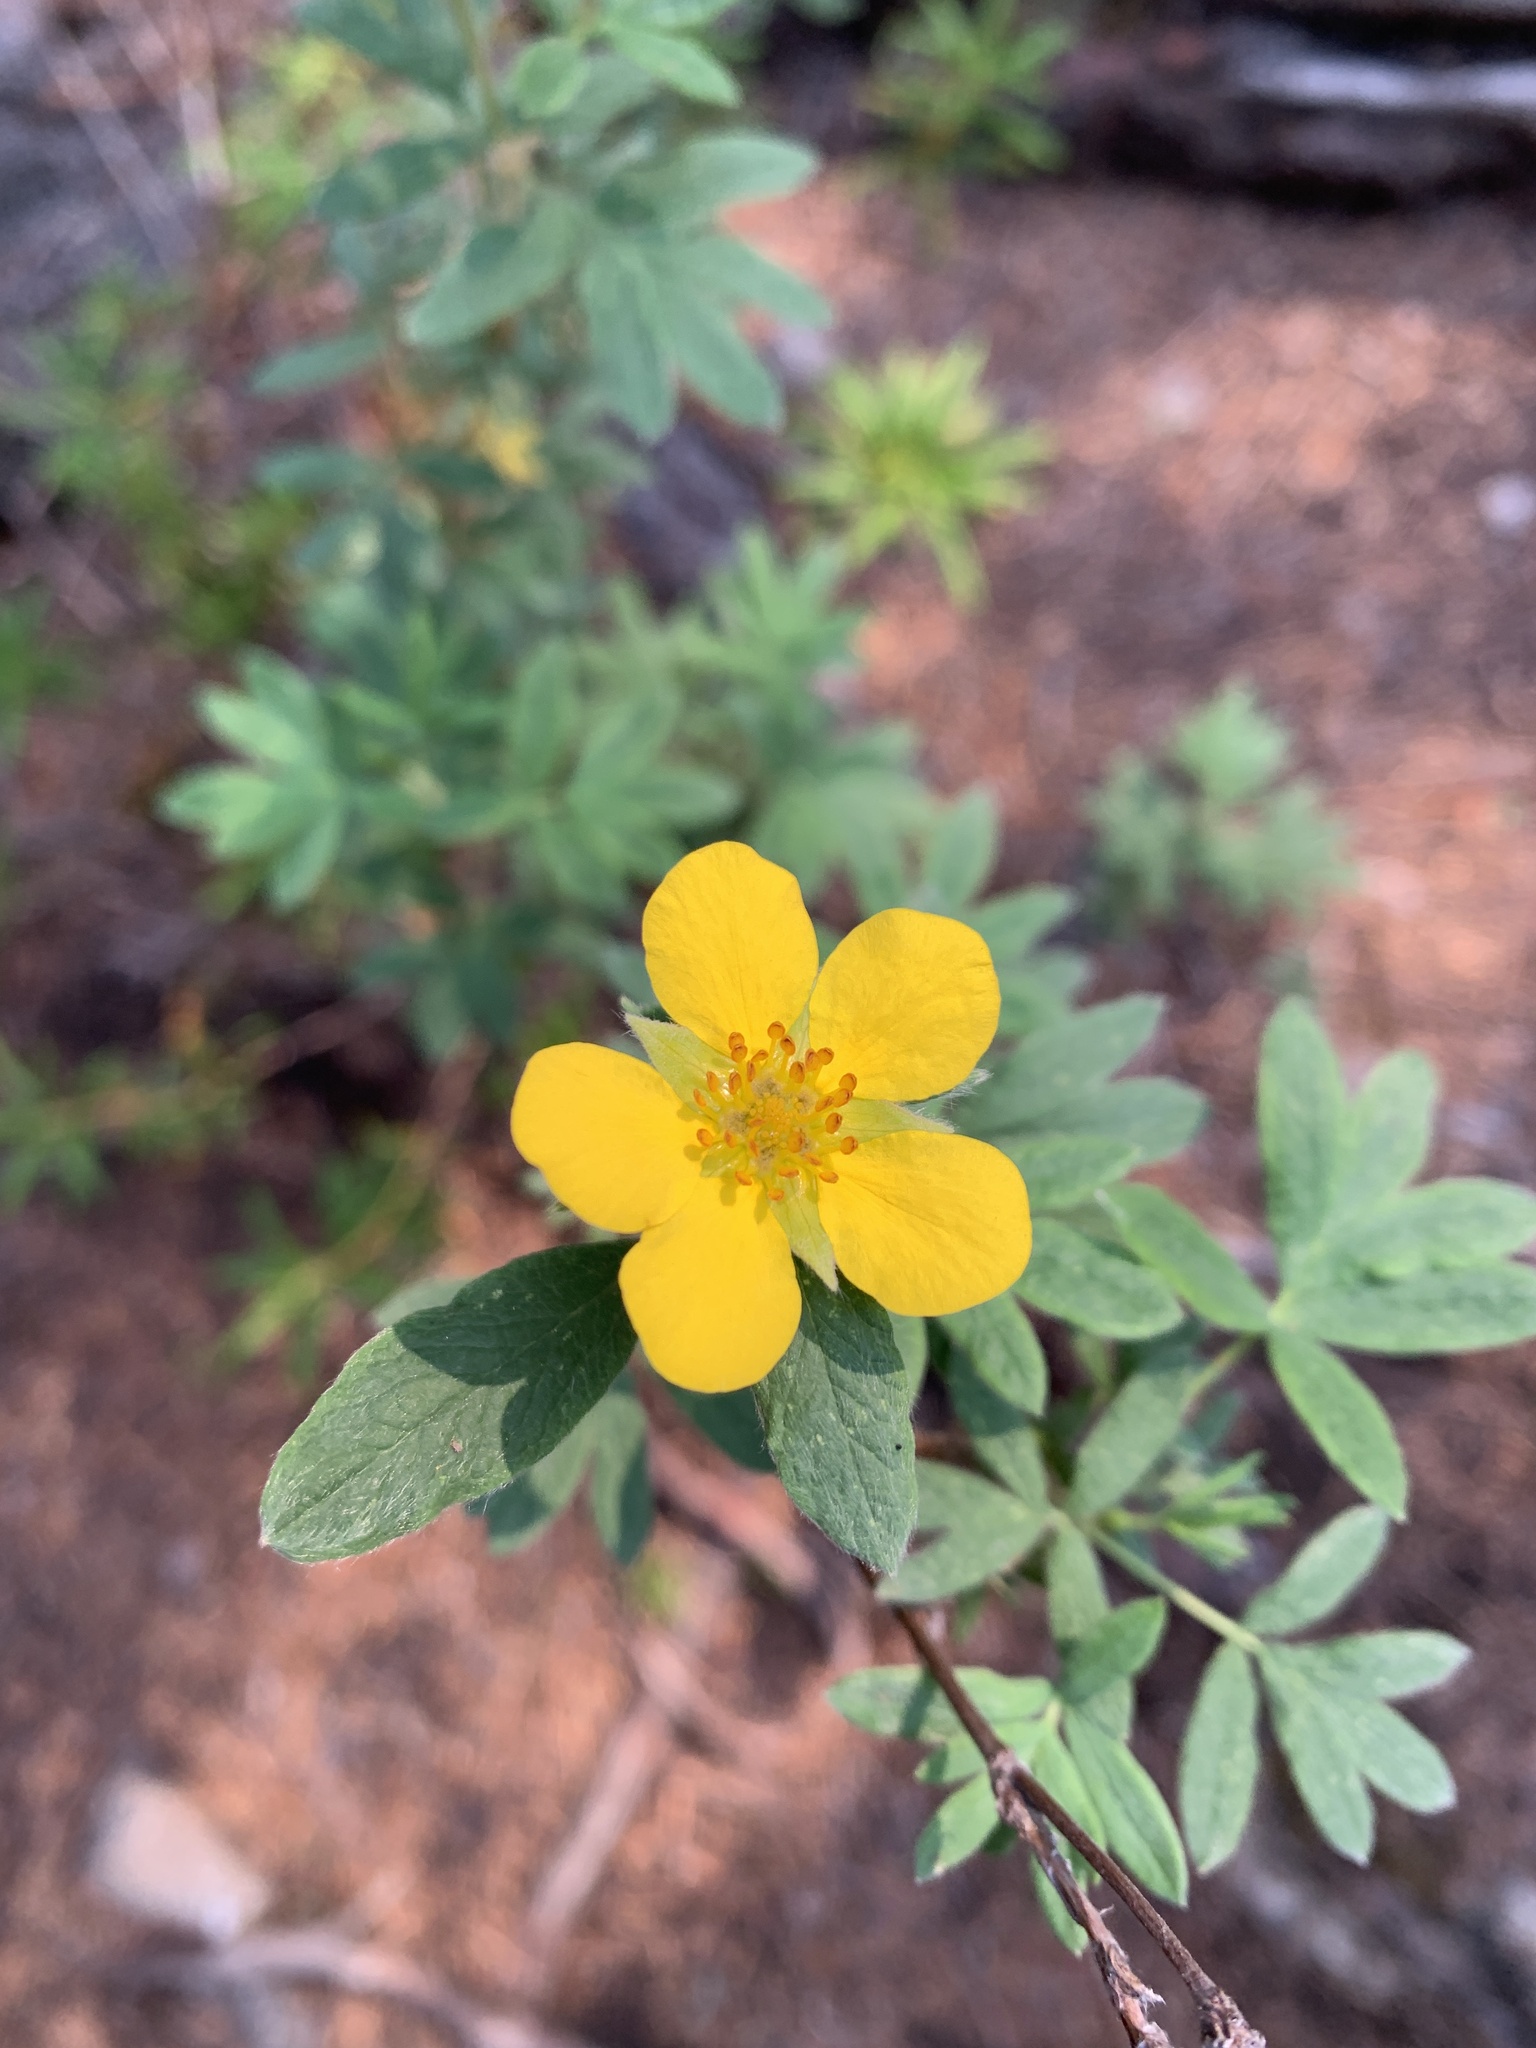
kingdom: Plantae
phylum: Tracheophyta
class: Magnoliopsida
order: Rosales
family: Rosaceae
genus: Dasiphora
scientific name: Dasiphora fruticosa
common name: Shrubby cinquefoil
